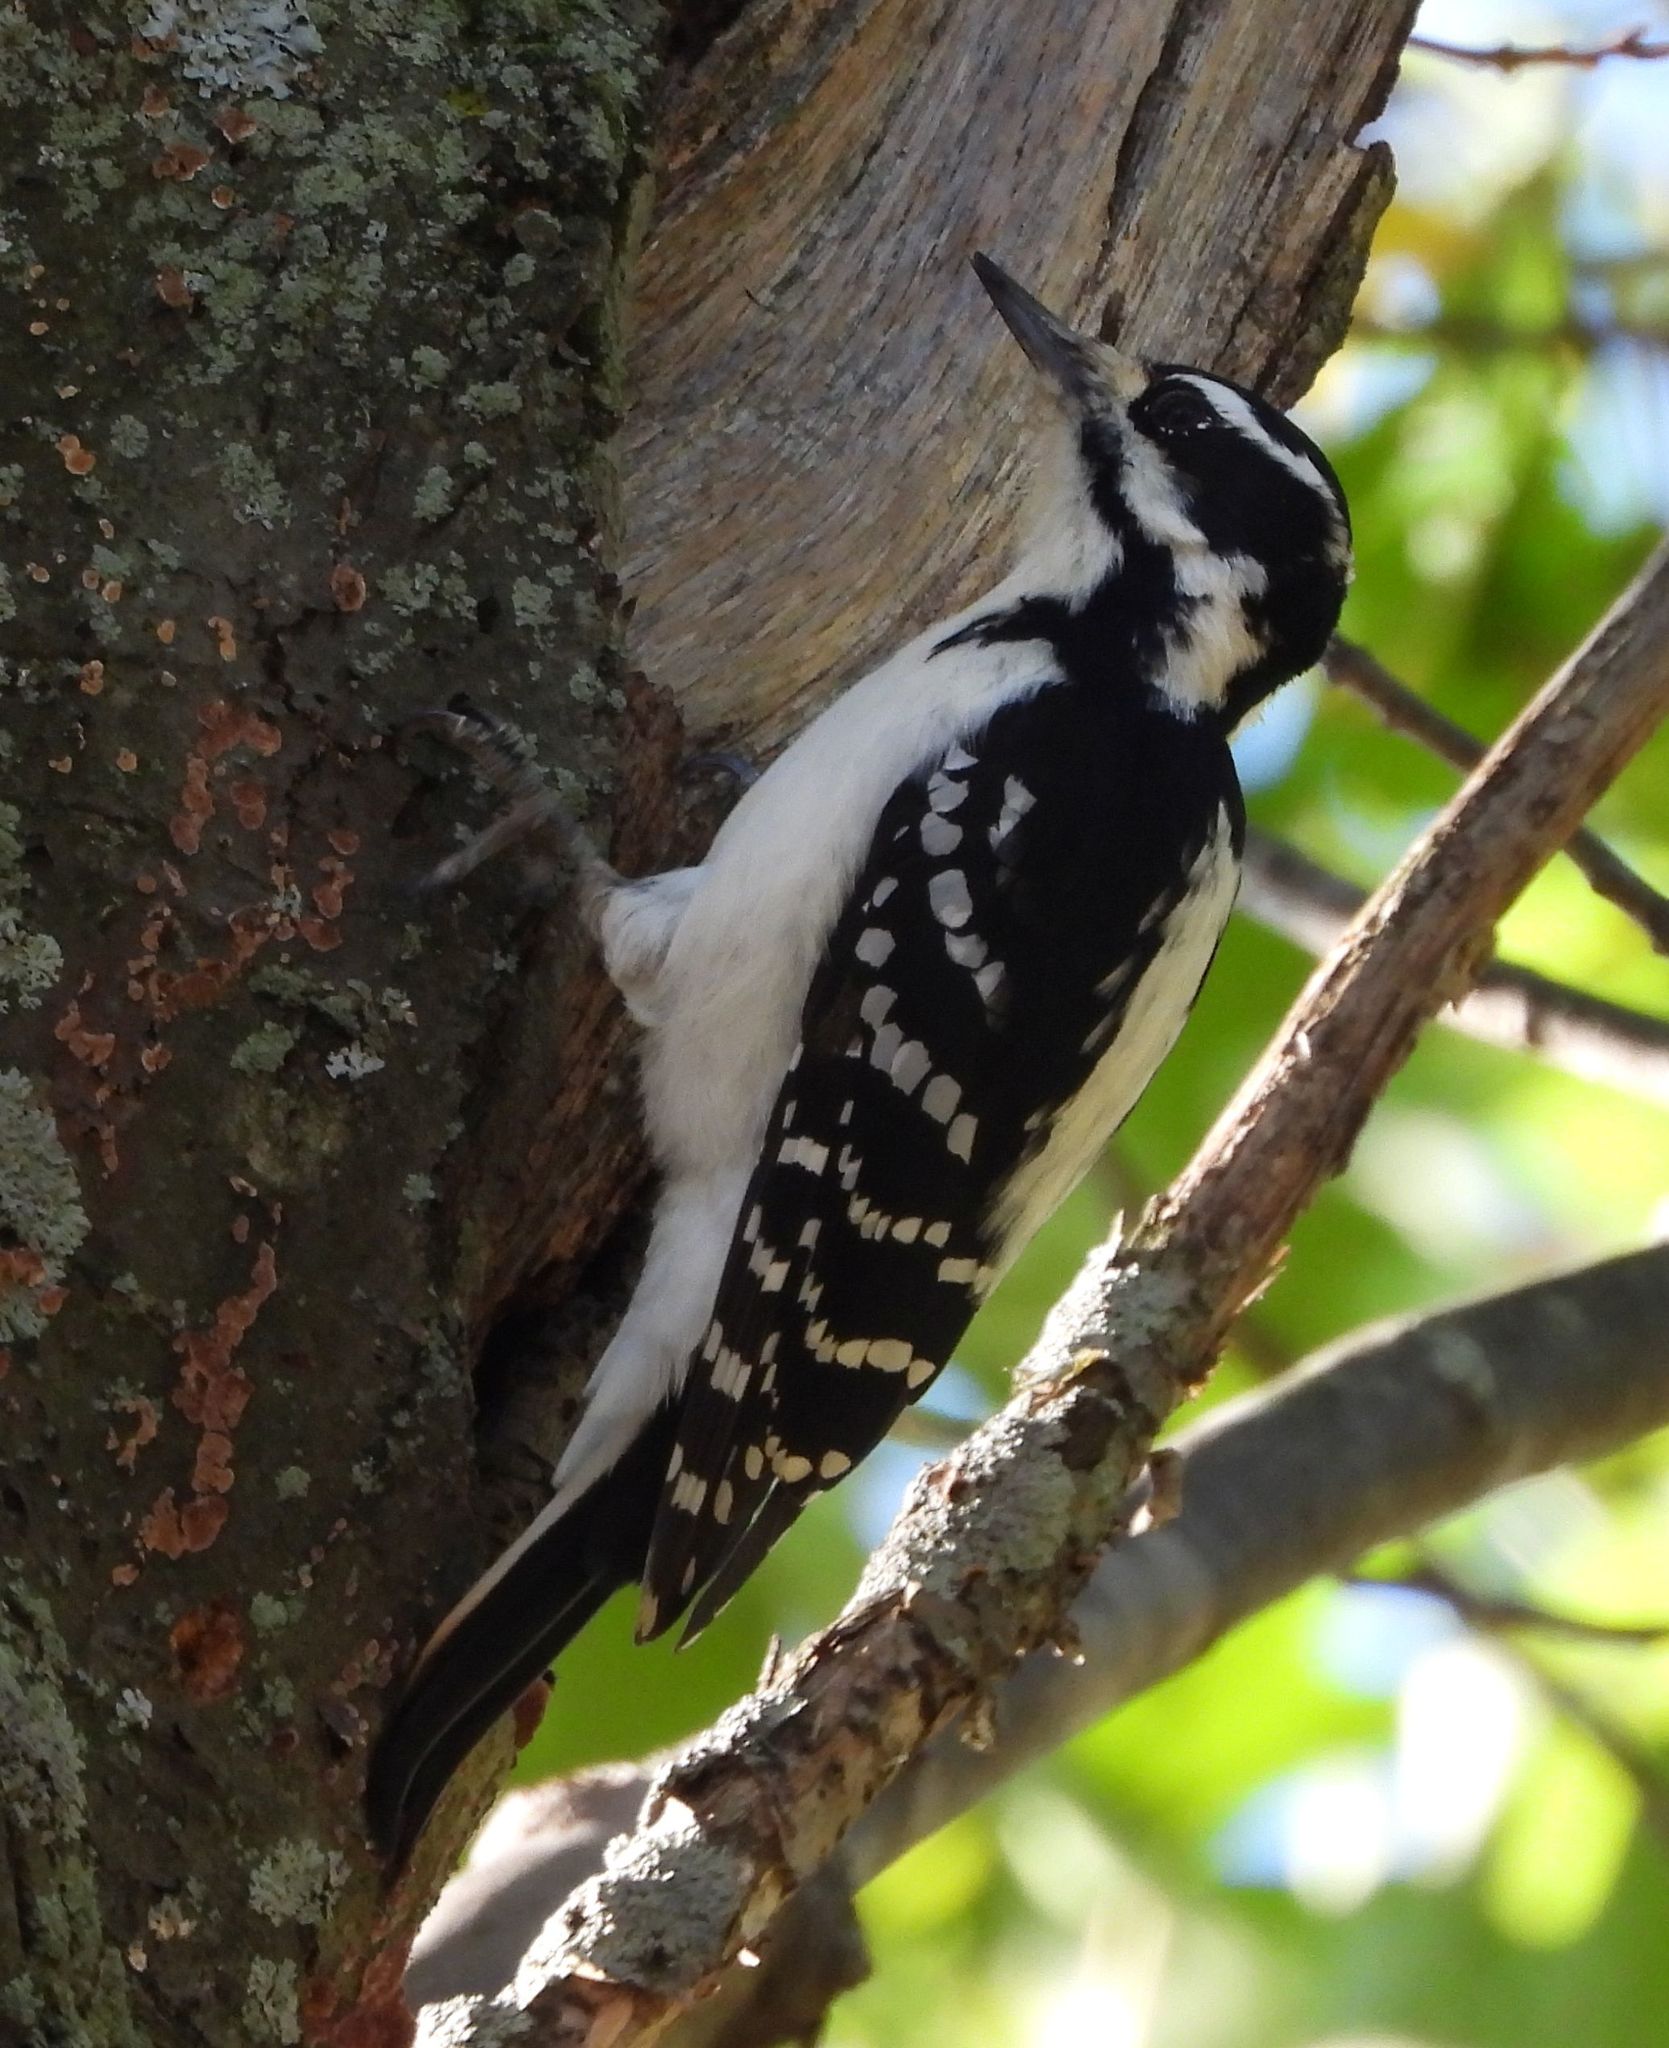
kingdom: Animalia
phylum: Chordata
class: Aves
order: Piciformes
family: Picidae
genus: Leuconotopicus
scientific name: Leuconotopicus villosus
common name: Hairy woodpecker
